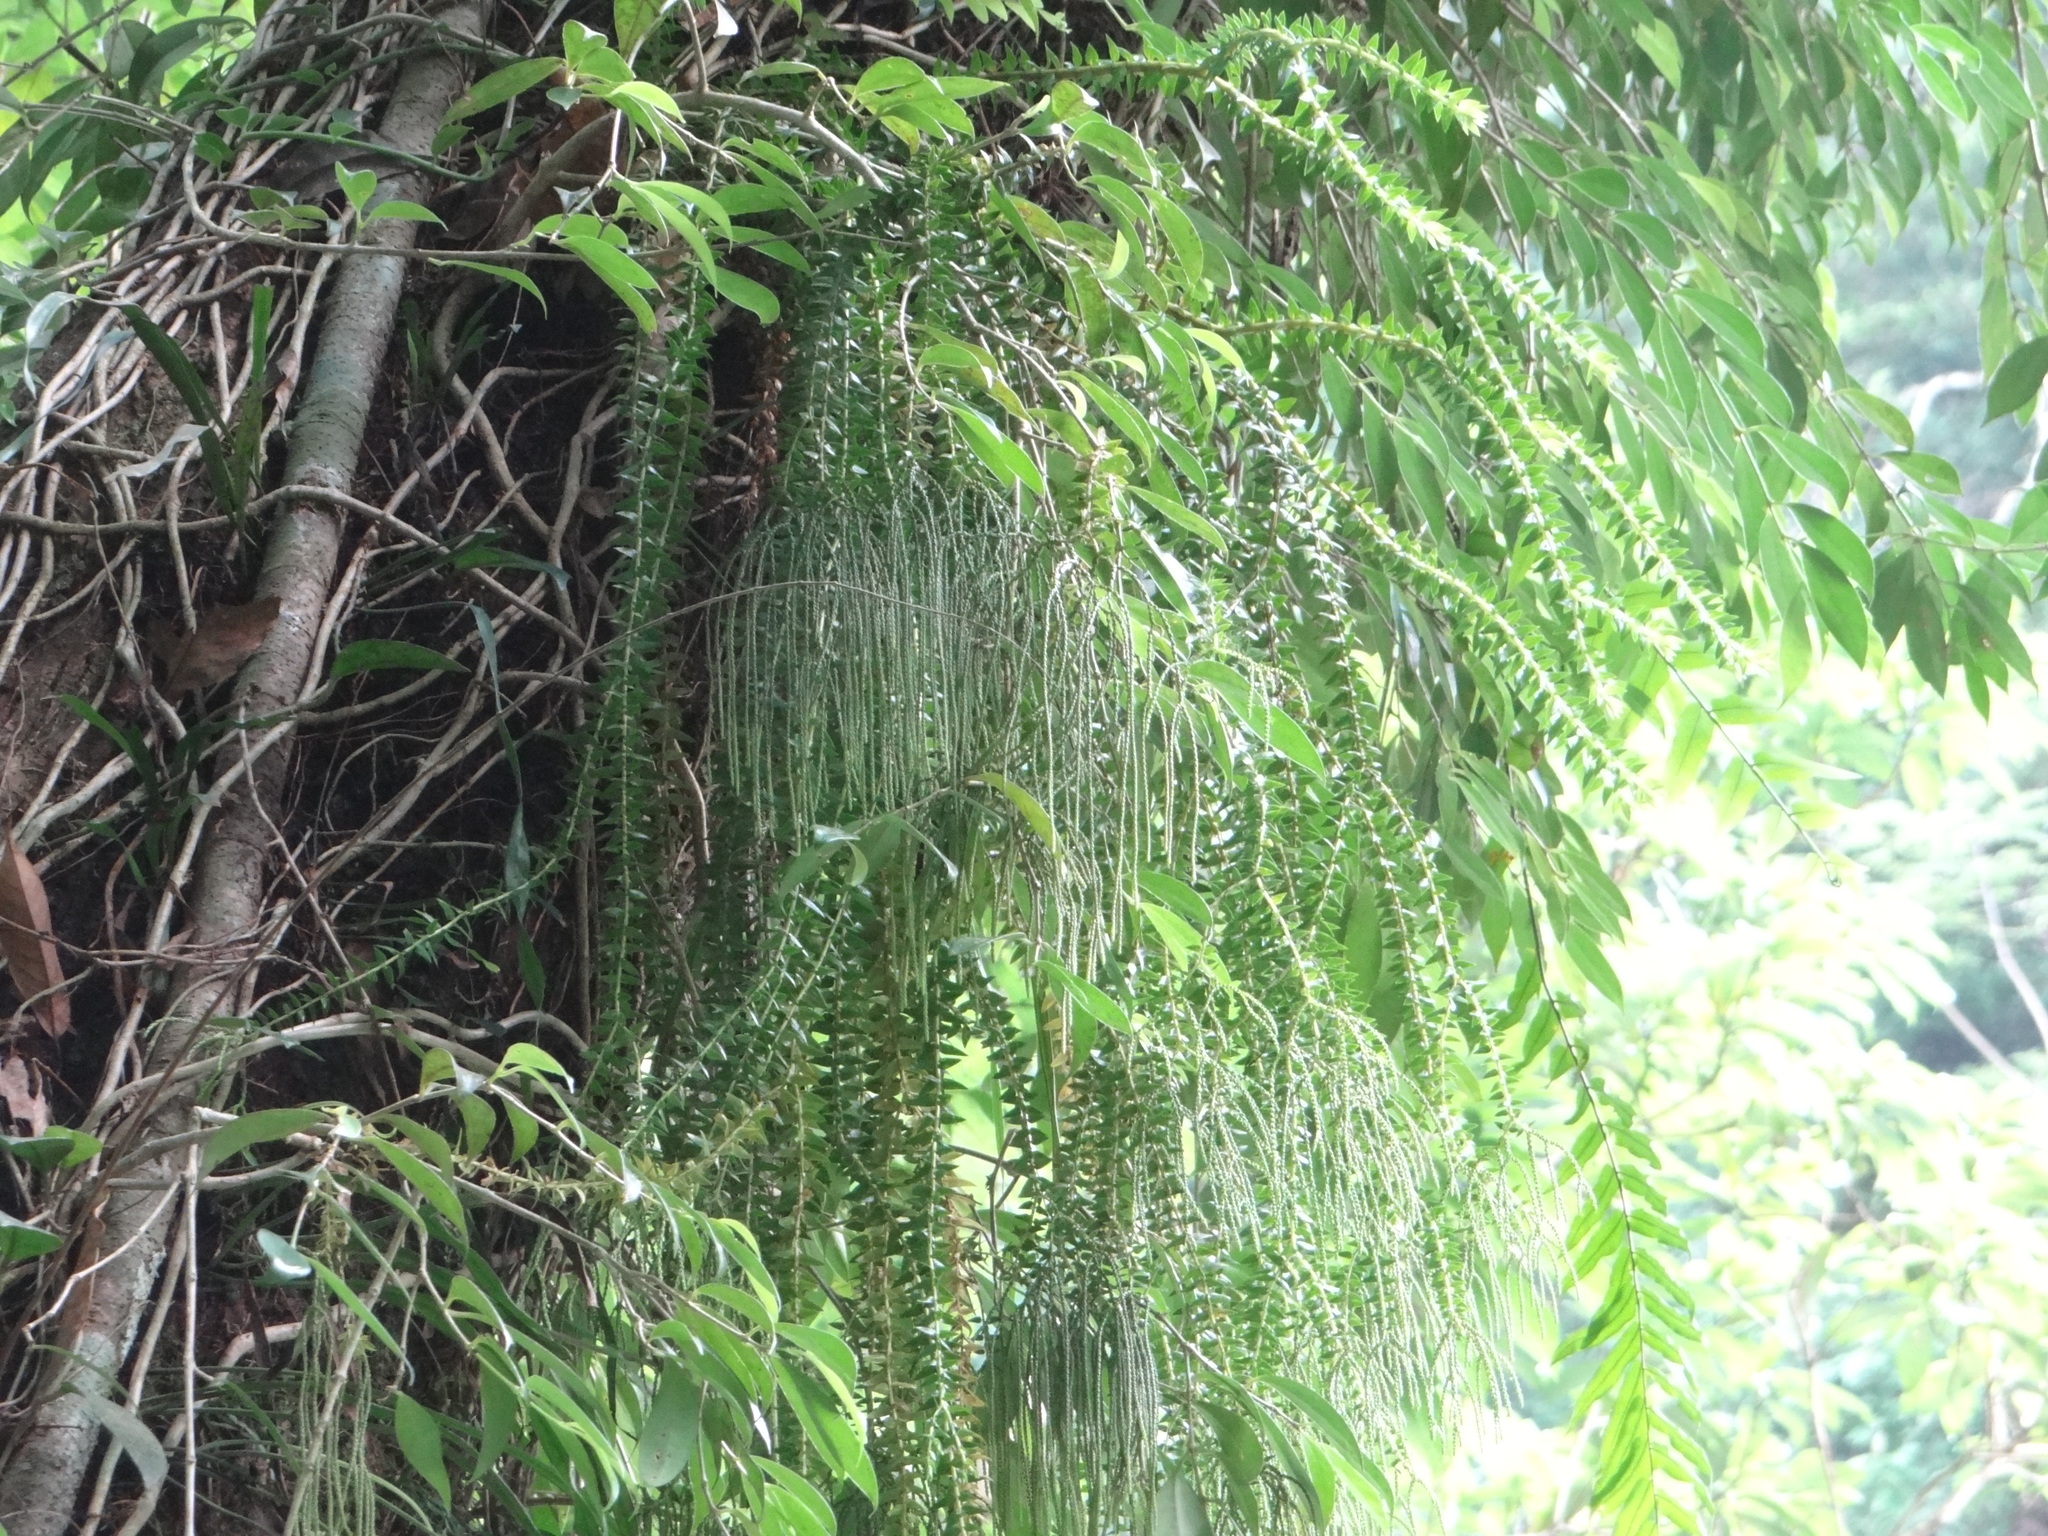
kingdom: Plantae
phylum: Tracheophyta
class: Lycopodiopsida
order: Lycopodiales
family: Lycopodiaceae
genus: Phlegmariurus
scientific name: Phlegmariurus phlegmaria
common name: Coarse tassel-fern
